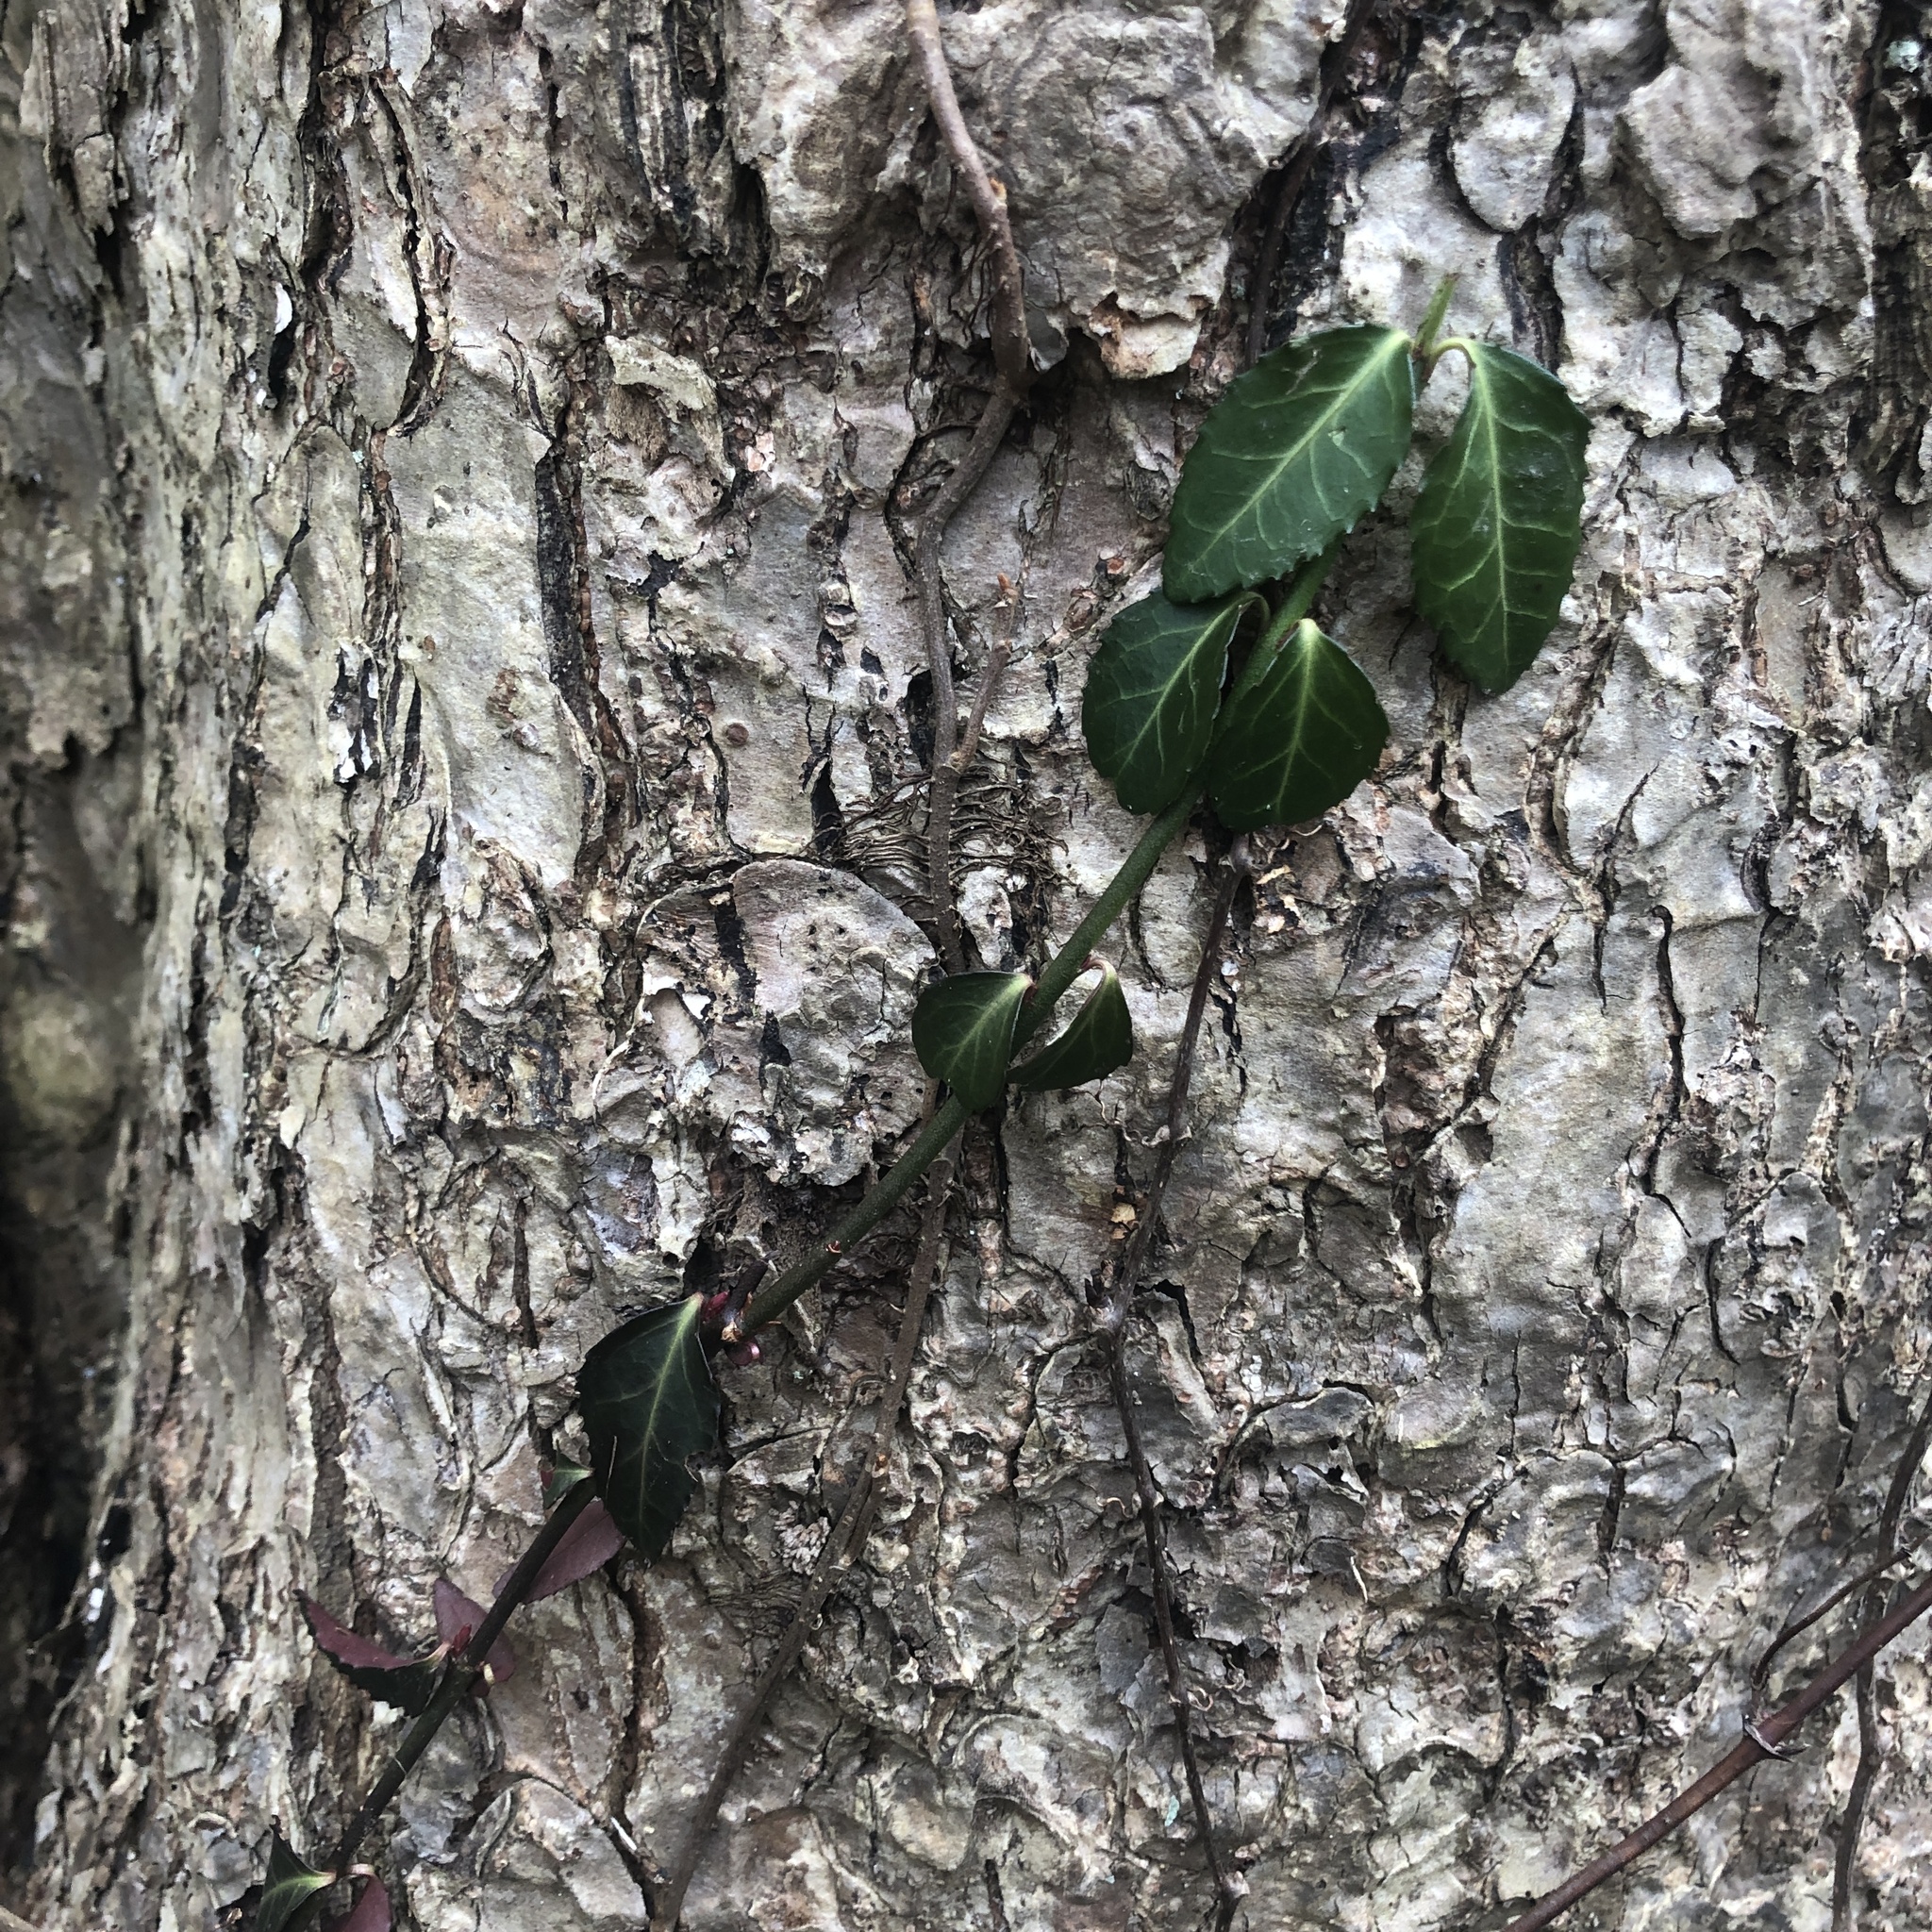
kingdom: Plantae
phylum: Tracheophyta
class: Magnoliopsida
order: Celastrales
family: Celastraceae
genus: Euonymus
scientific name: Euonymus fortunei
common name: Climbing euonymus
